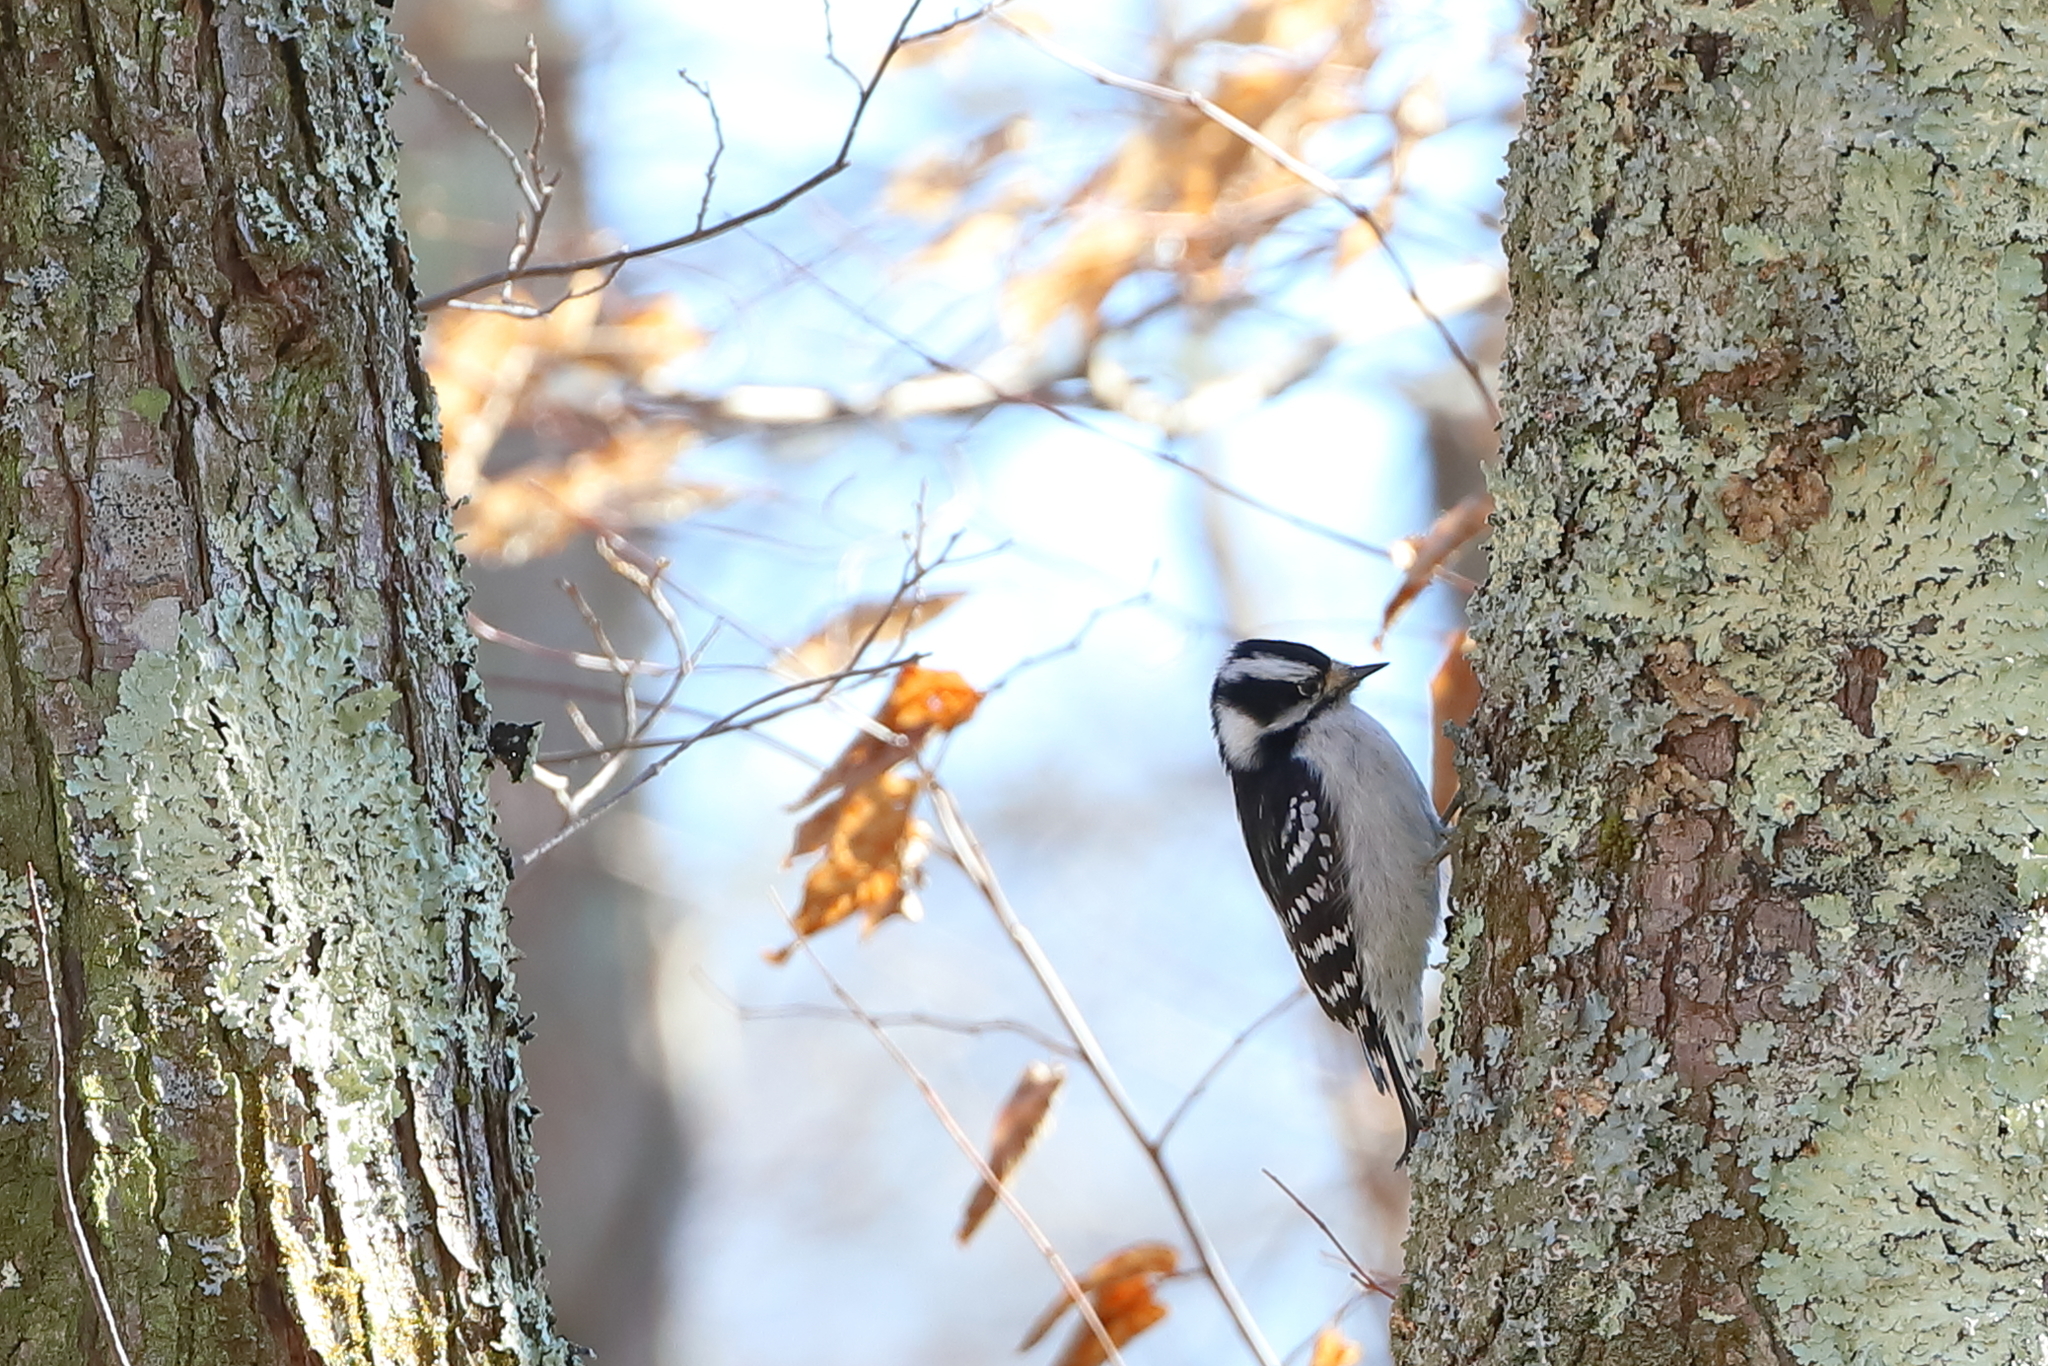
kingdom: Animalia
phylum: Chordata
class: Aves
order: Piciformes
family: Picidae
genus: Dryobates
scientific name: Dryobates pubescens
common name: Downy woodpecker
